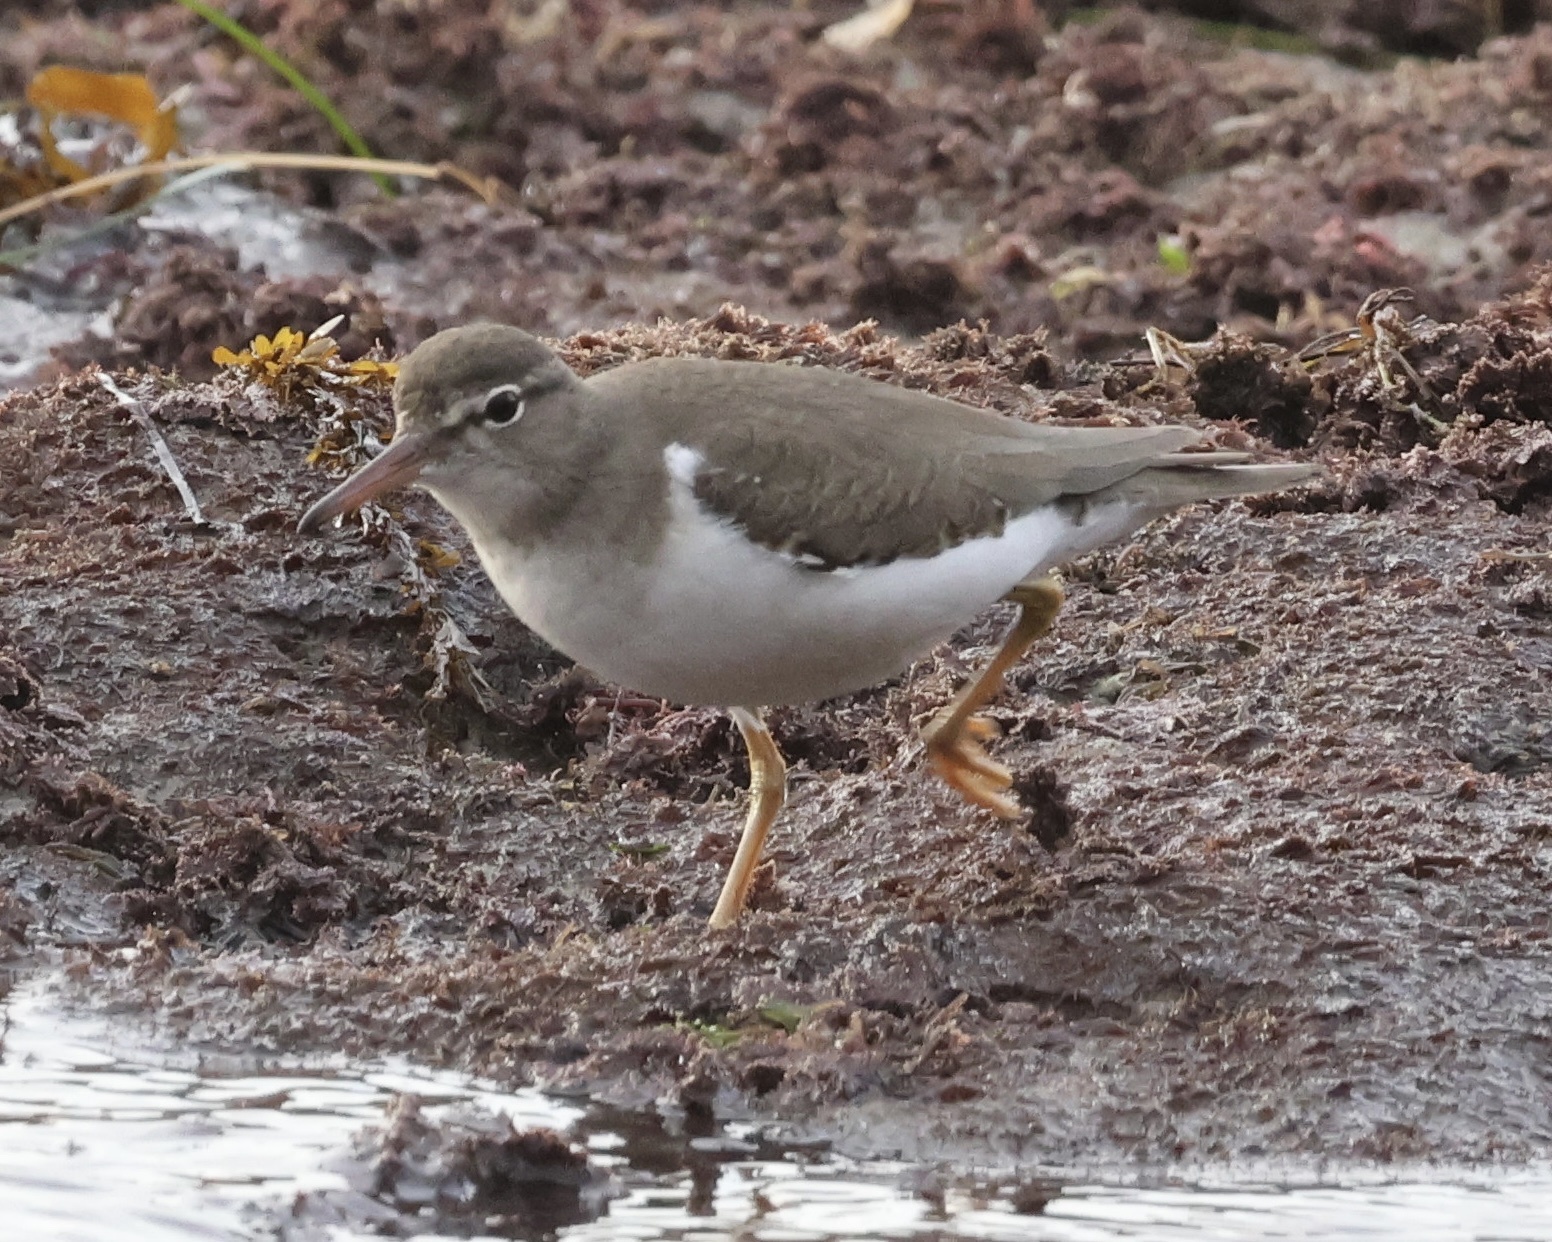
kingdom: Animalia
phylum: Chordata
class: Aves
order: Charadriiformes
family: Scolopacidae
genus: Actitis
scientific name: Actitis macularius
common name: Spotted sandpiper
